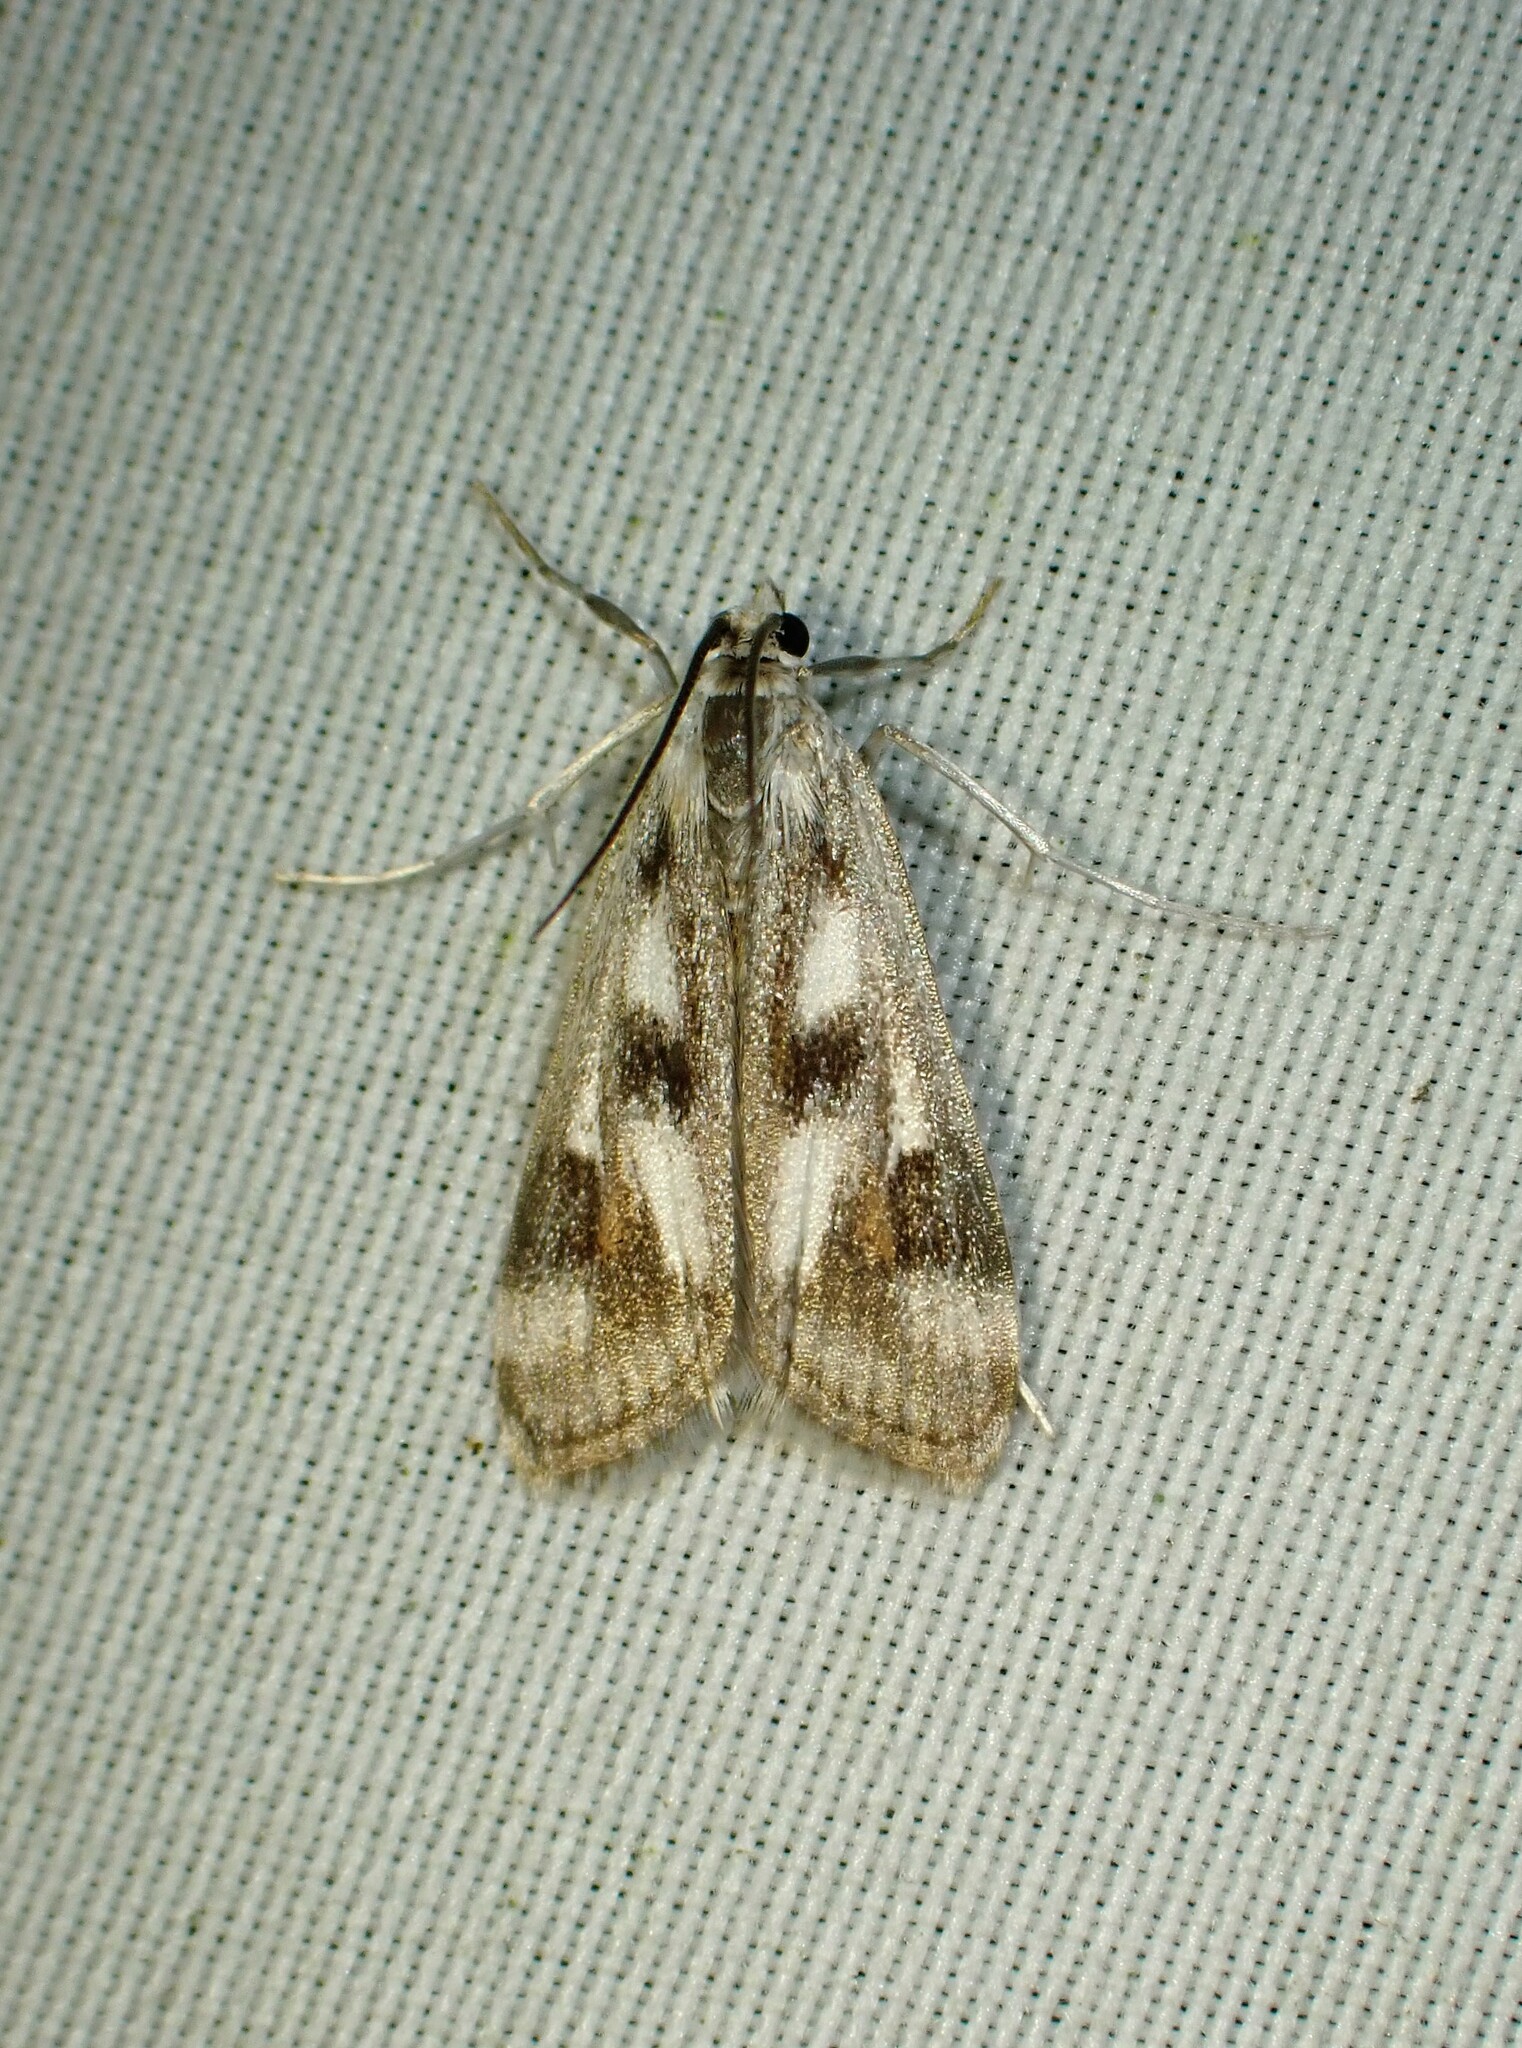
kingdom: Animalia
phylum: Arthropoda
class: Insecta
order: Lepidoptera
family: Crambidae
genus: Parapoynx
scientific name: Parapoynx maculalis
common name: Polymorphic pondweed moth
